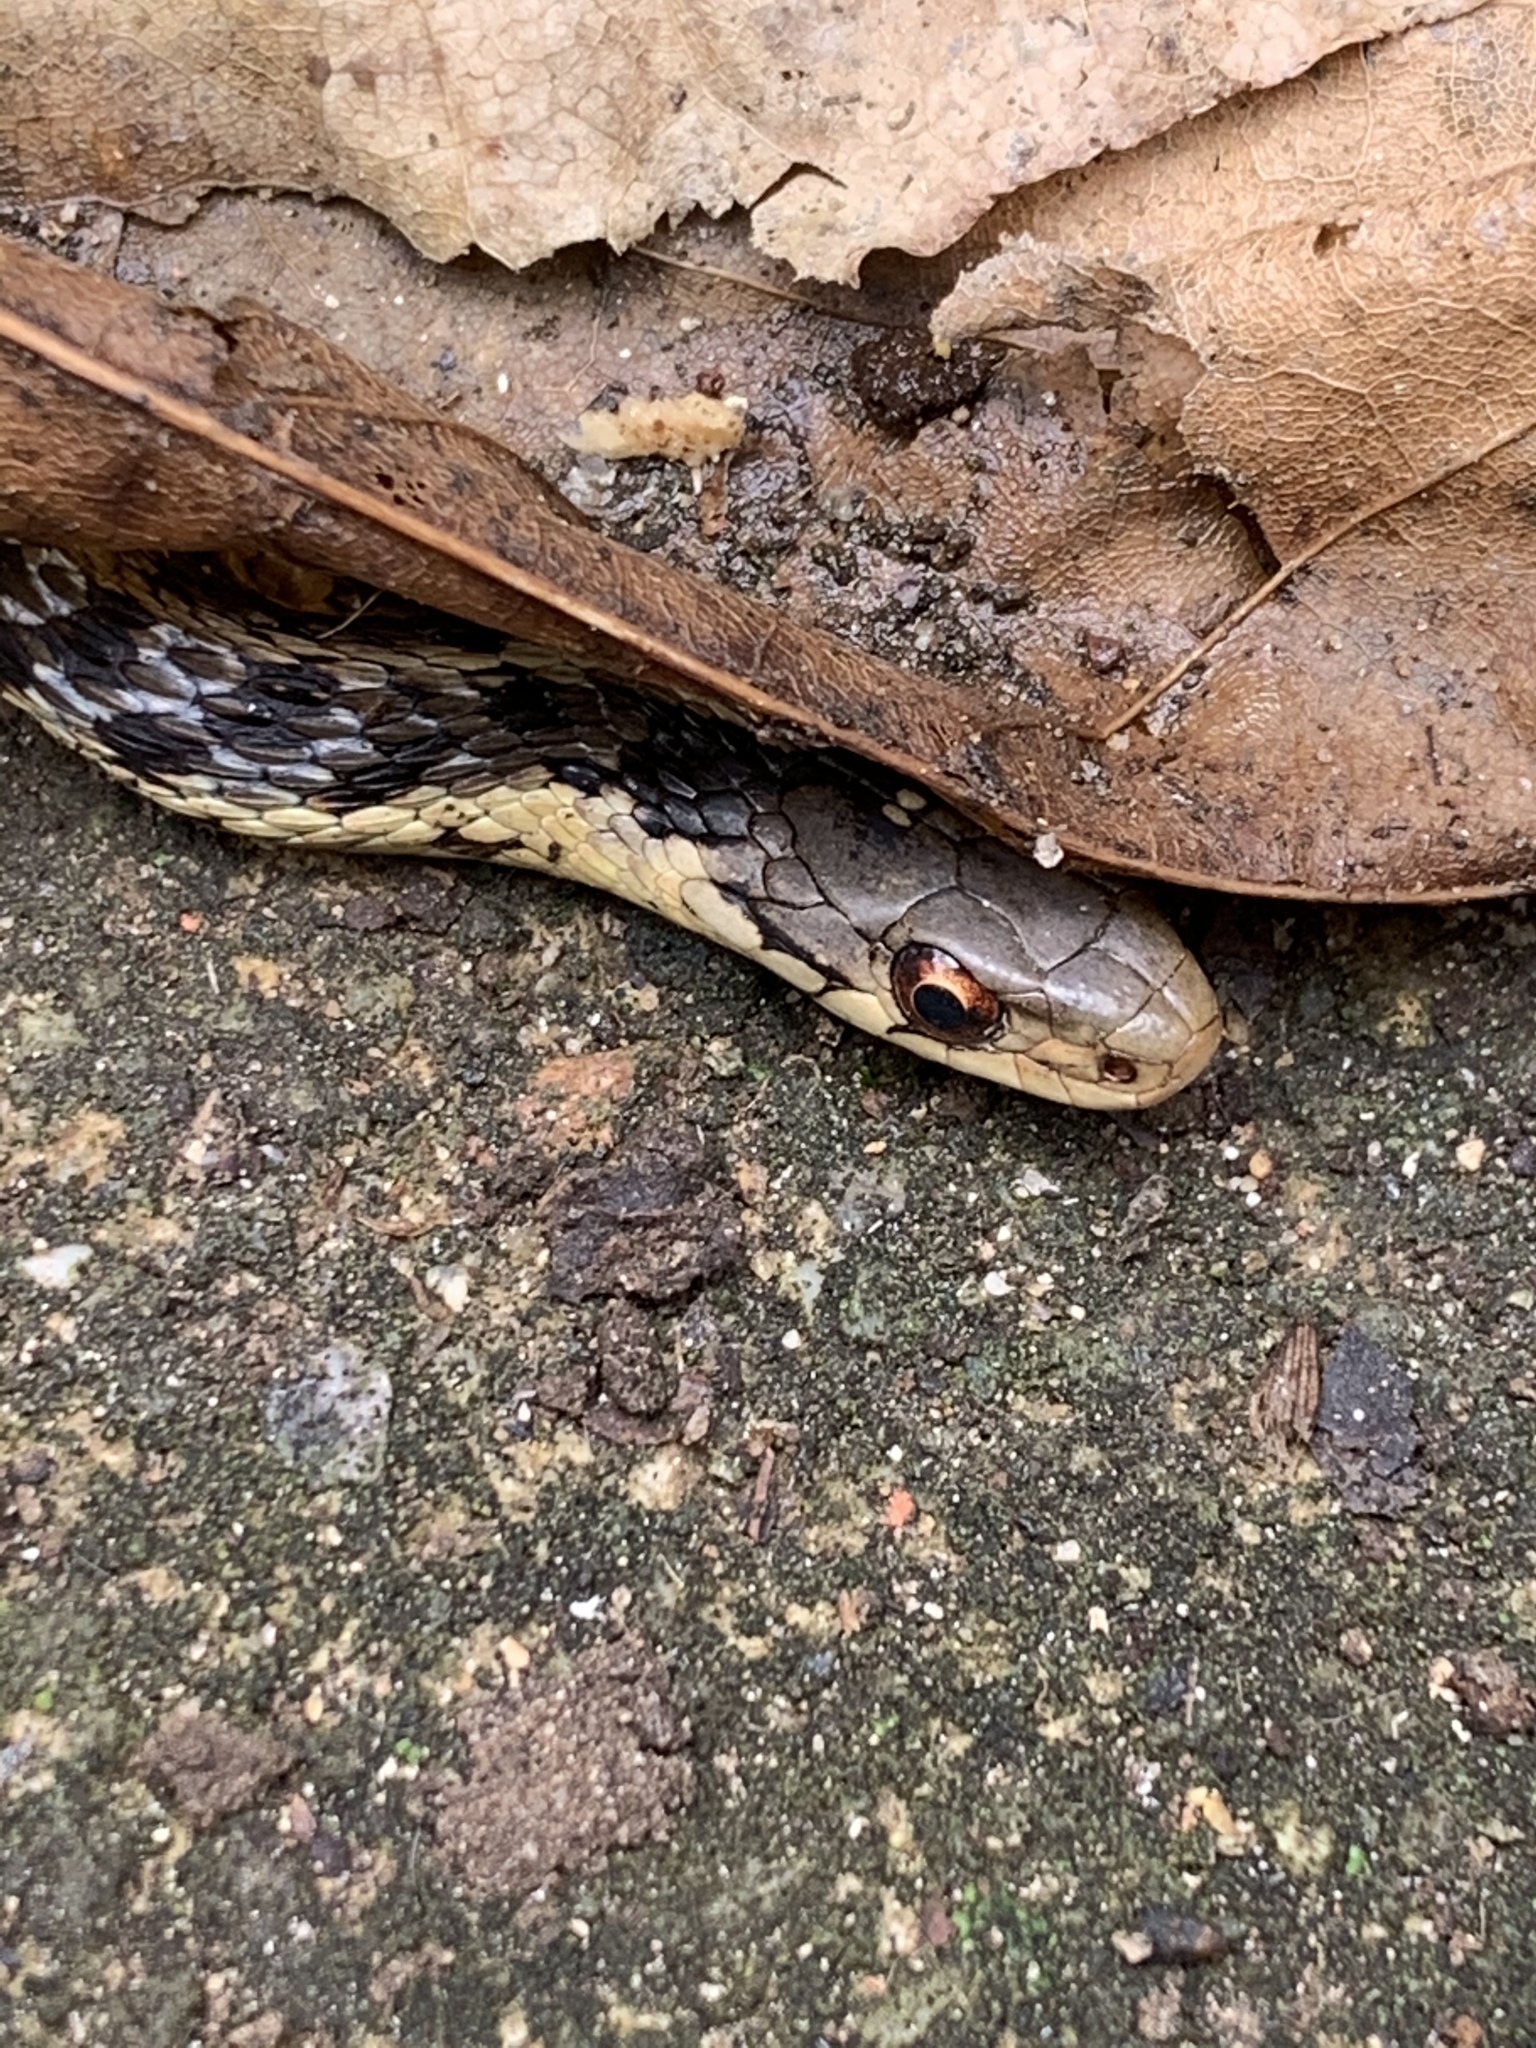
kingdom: Animalia
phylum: Chordata
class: Squamata
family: Colubridae
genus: Thamnophis
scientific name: Thamnophis sirtalis
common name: Common garter snake
